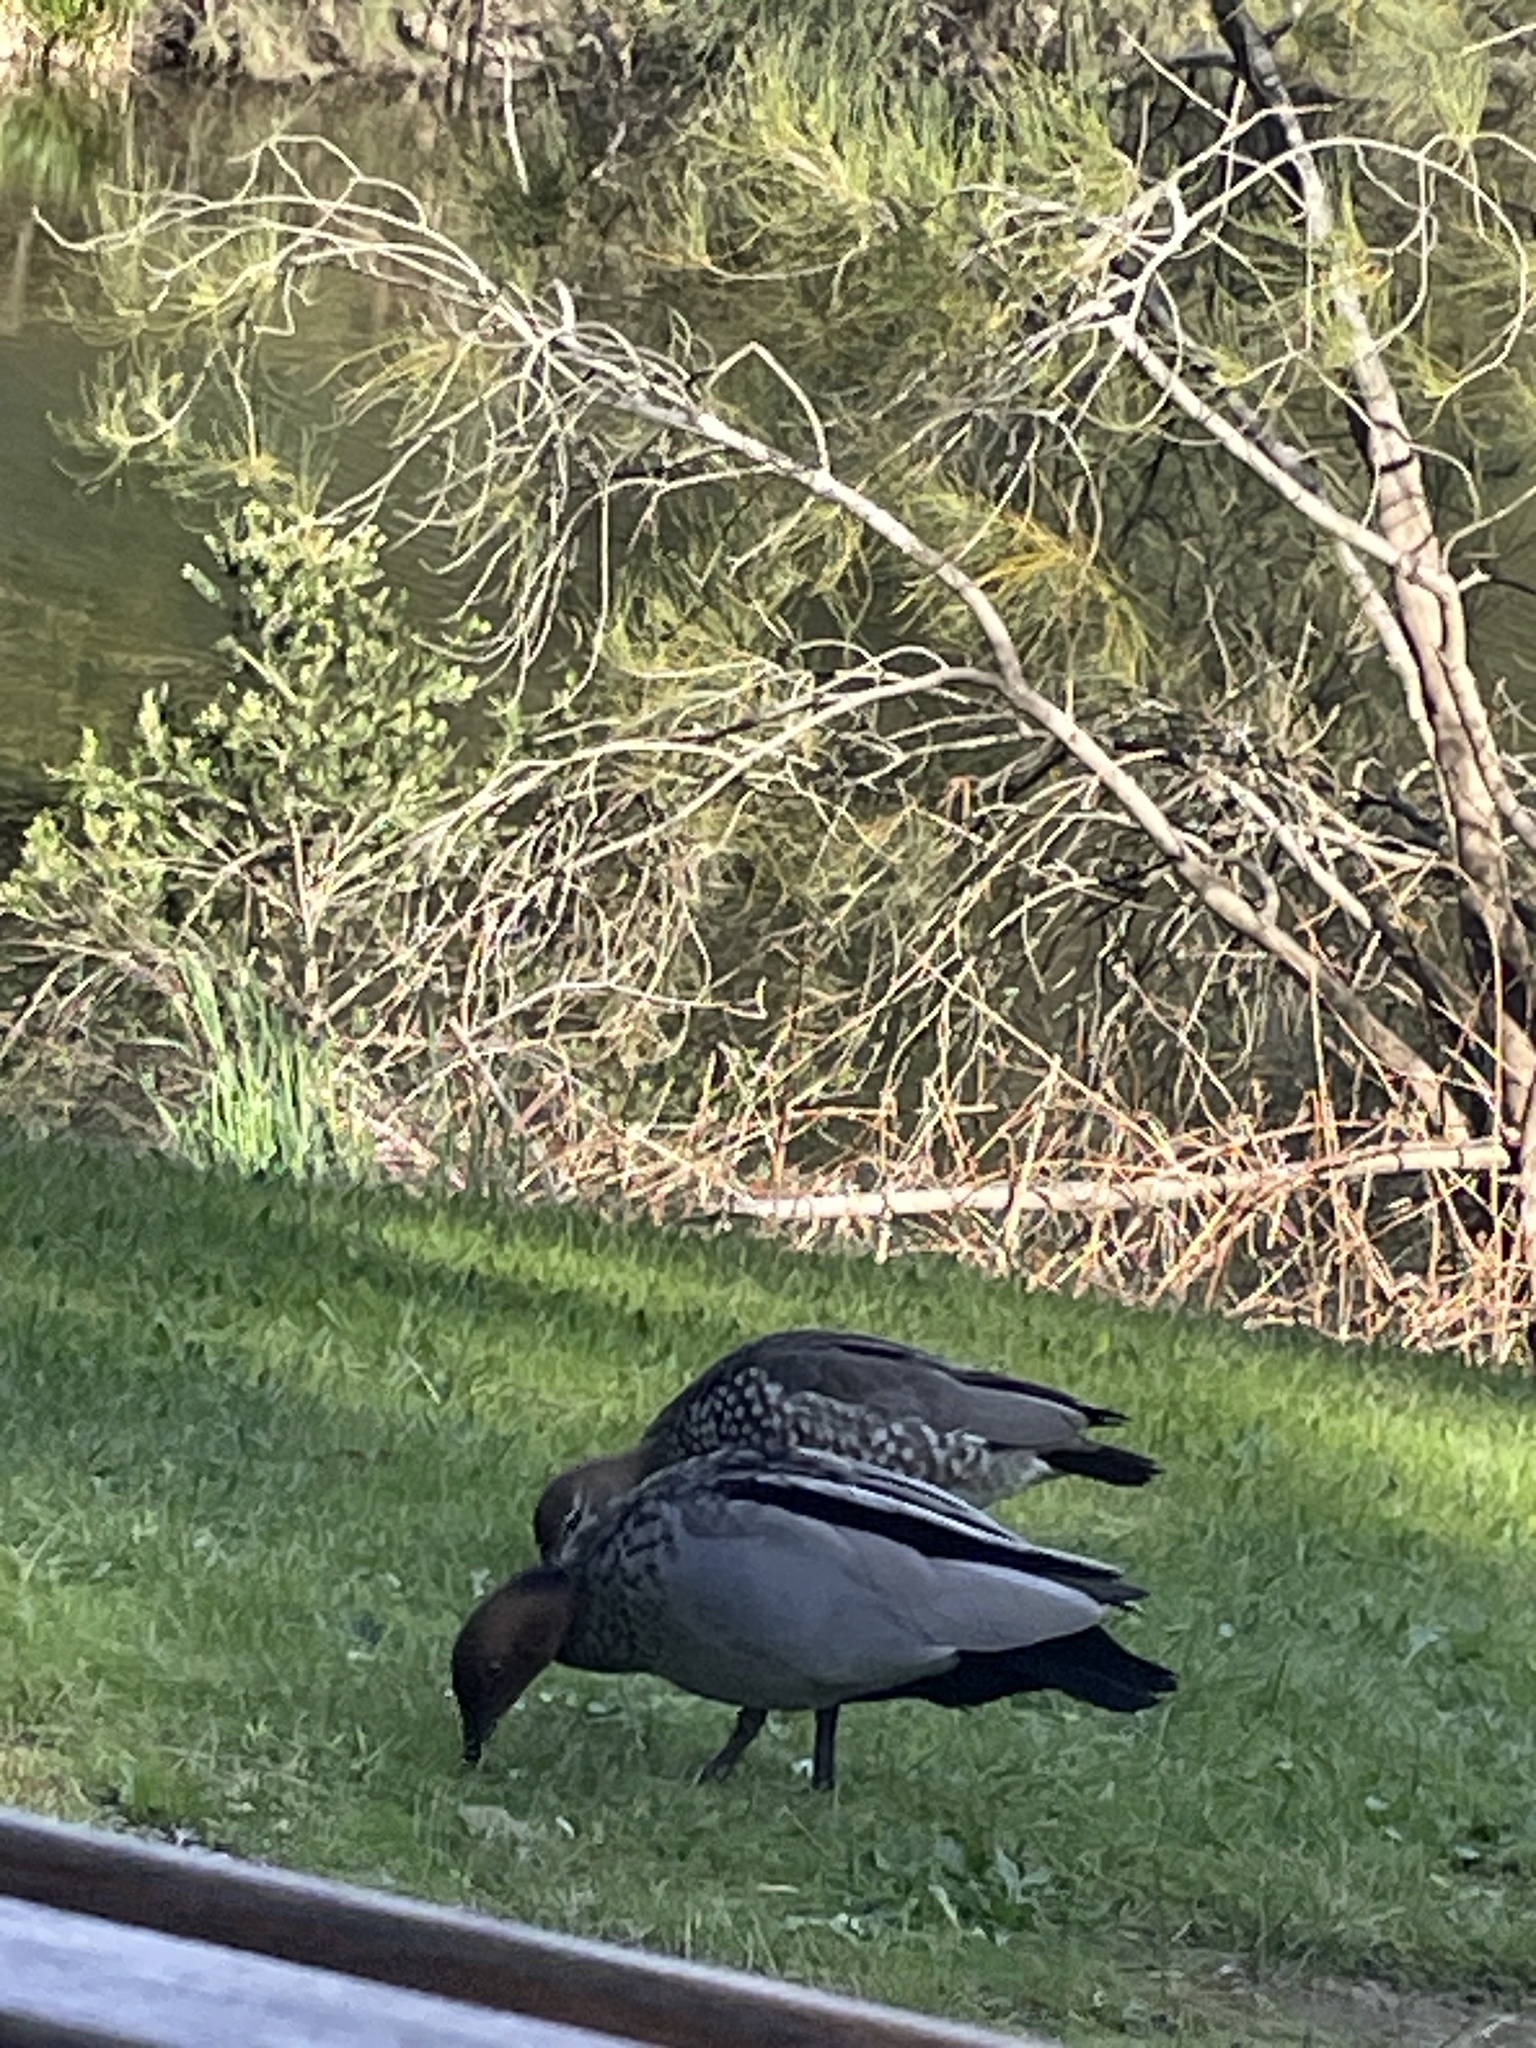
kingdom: Animalia
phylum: Chordata
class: Aves
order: Anseriformes
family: Anatidae
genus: Chenonetta
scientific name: Chenonetta jubata
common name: Maned duck
